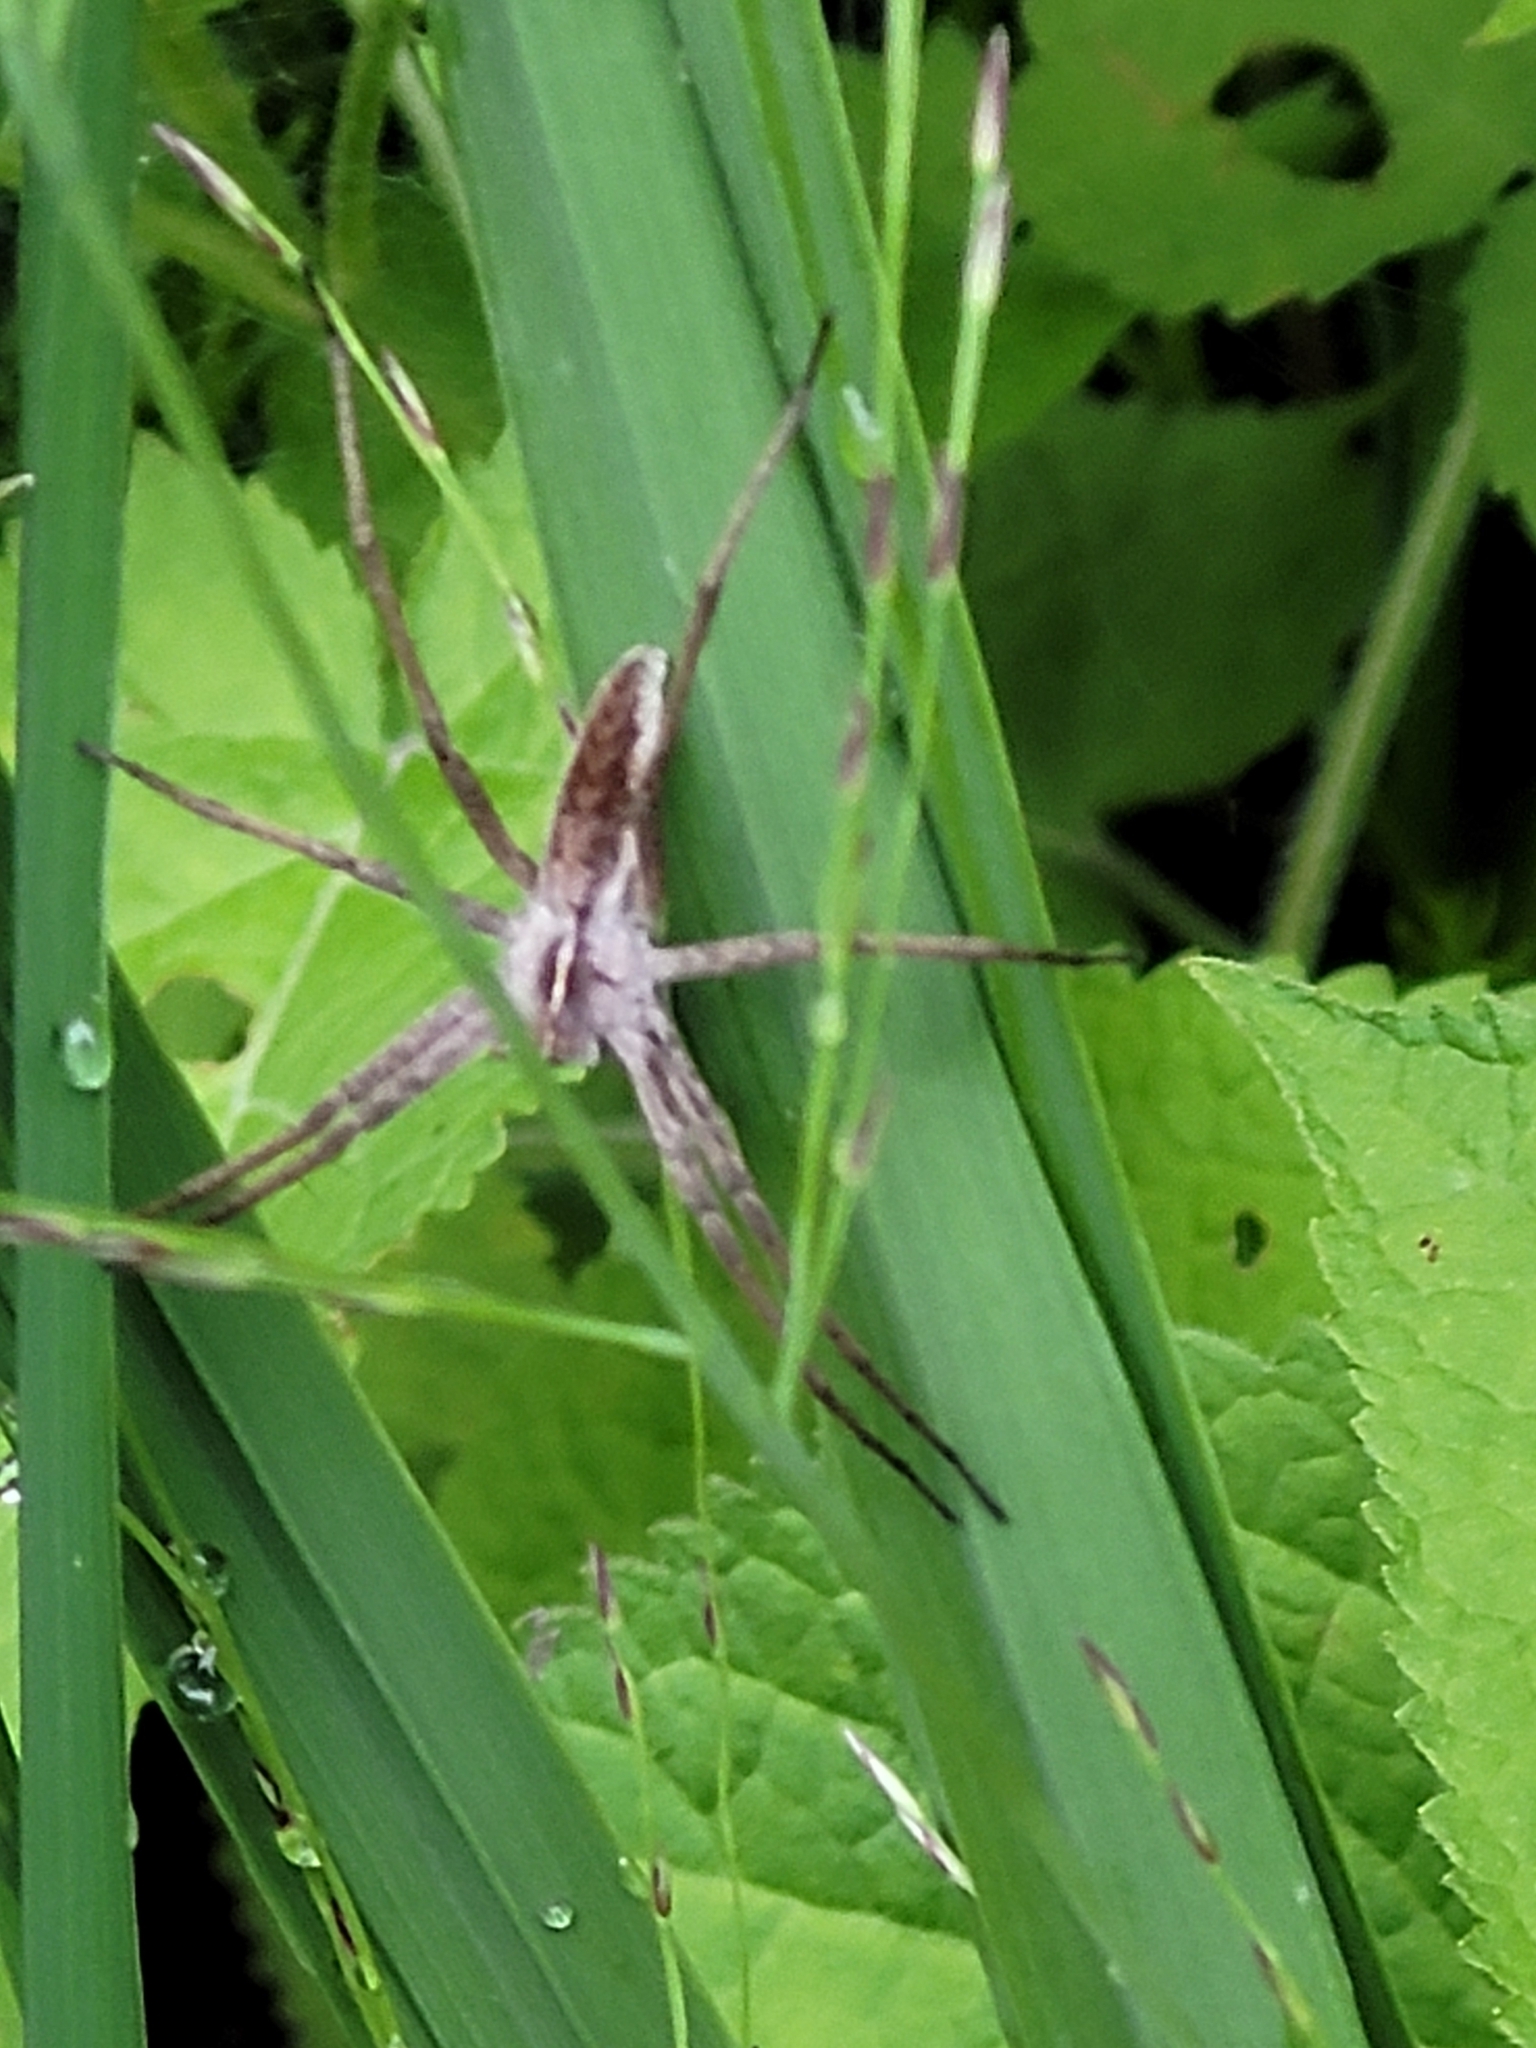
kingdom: Animalia
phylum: Arthropoda
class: Arachnida
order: Araneae
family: Pisauridae
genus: Pisaura
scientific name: Pisaura mirabilis
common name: Tent spider
